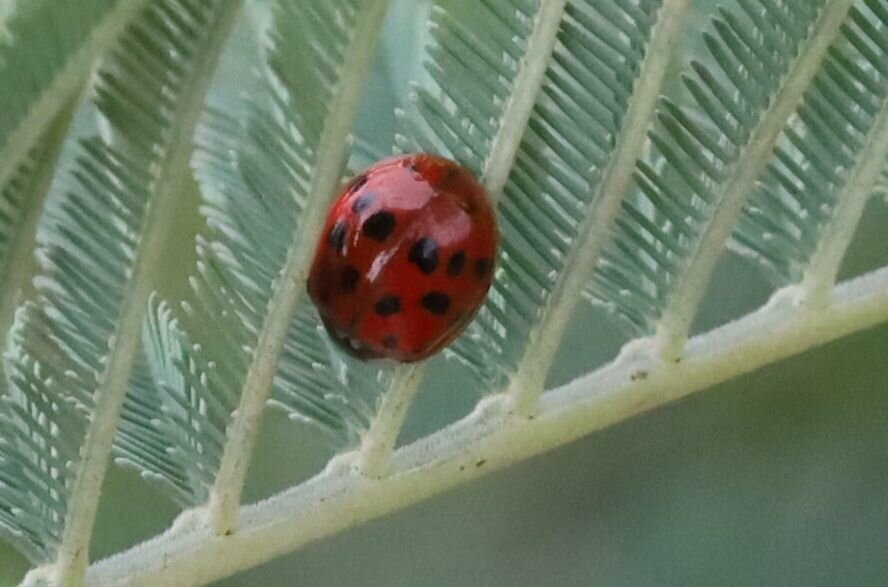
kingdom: Animalia
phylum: Arthropoda
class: Insecta
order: Coleoptera
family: Coccinellidae
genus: Harmonia
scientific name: Harmonia axyridis
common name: Harlequin ladybird
